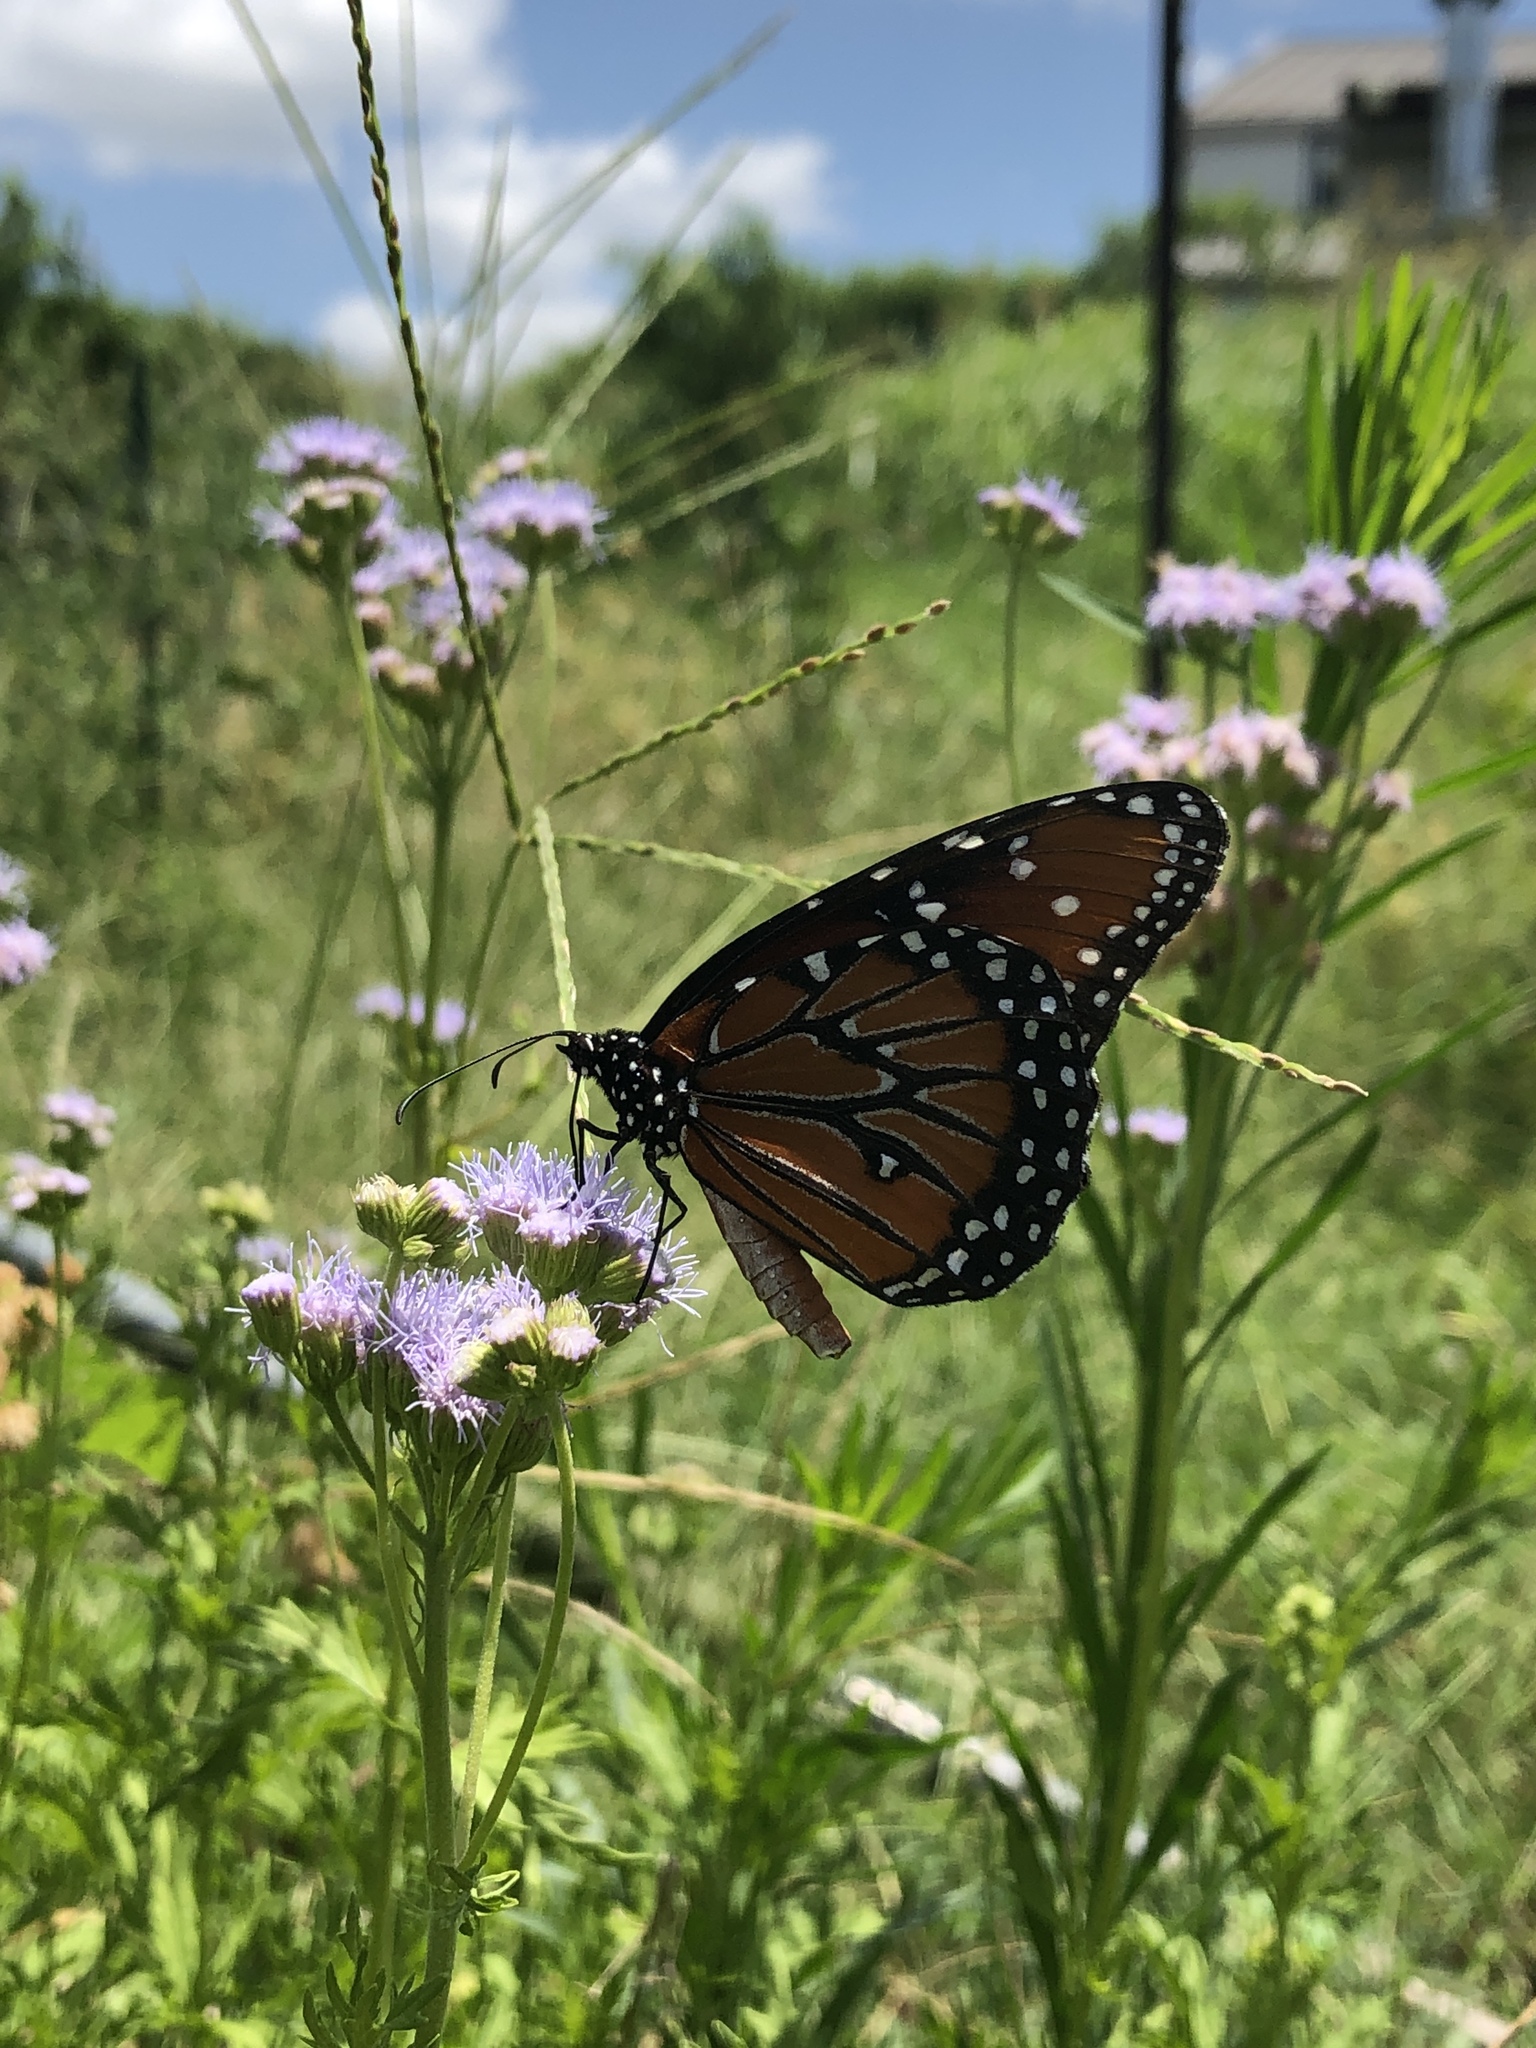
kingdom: Animalia
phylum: Arthropoda
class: Insecta
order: Lepidoptera
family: Nymphalidae
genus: Danaus
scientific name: Danaus gilippus
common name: Queen
